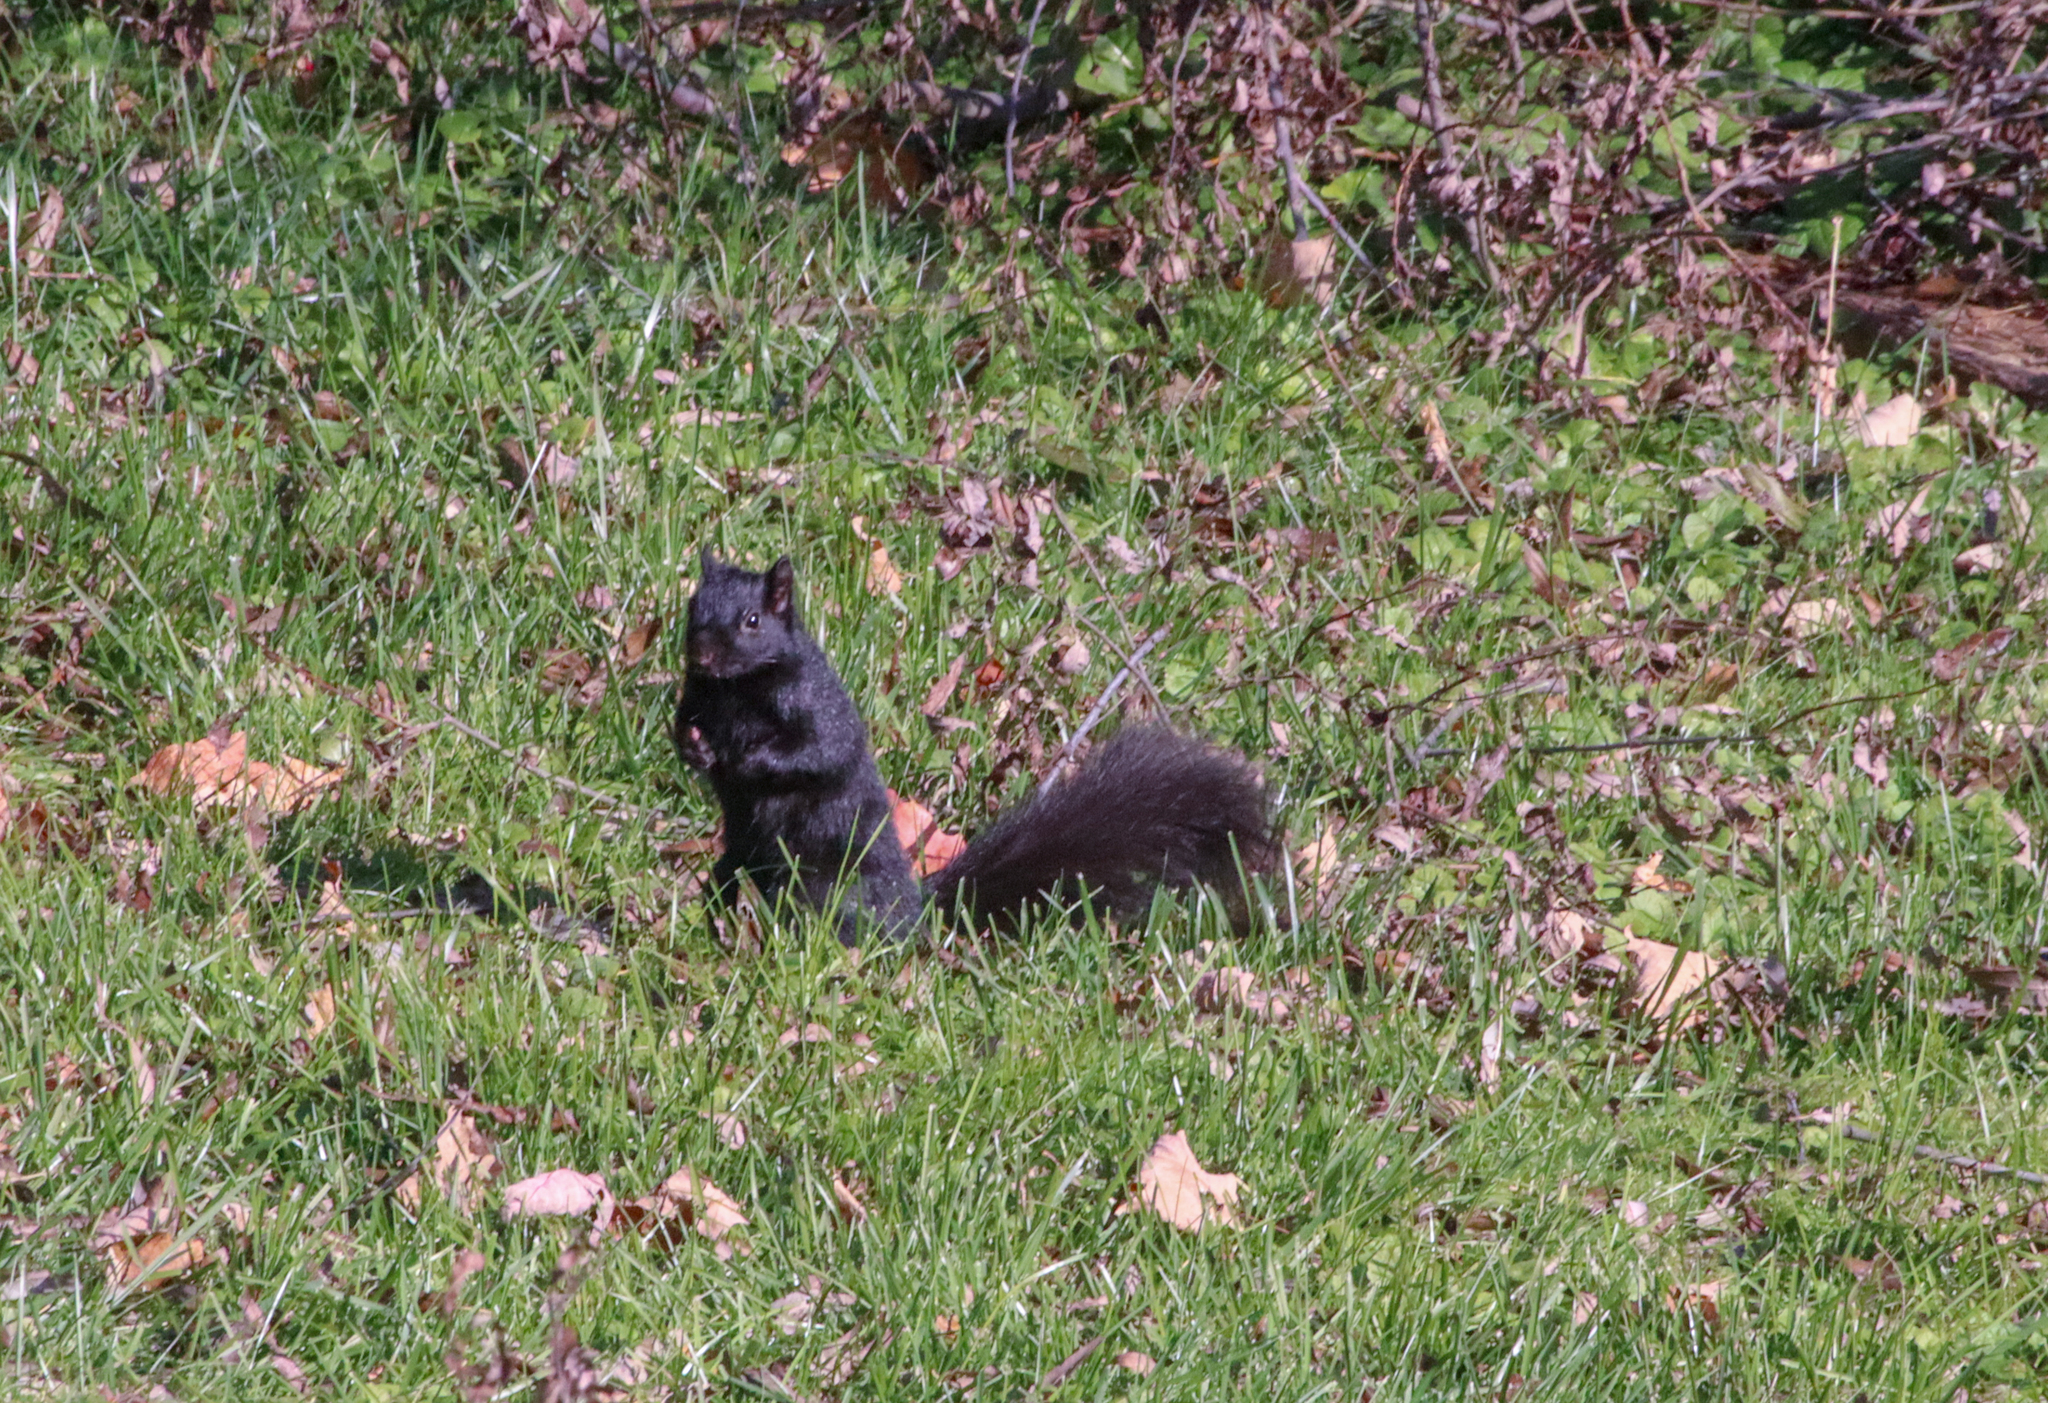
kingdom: Animalia
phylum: Chordata
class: Mammalia
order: Rodentia
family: Sciuridae
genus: Sciurus
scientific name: Sciurus carolinensis
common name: Eastern gray squirrel
